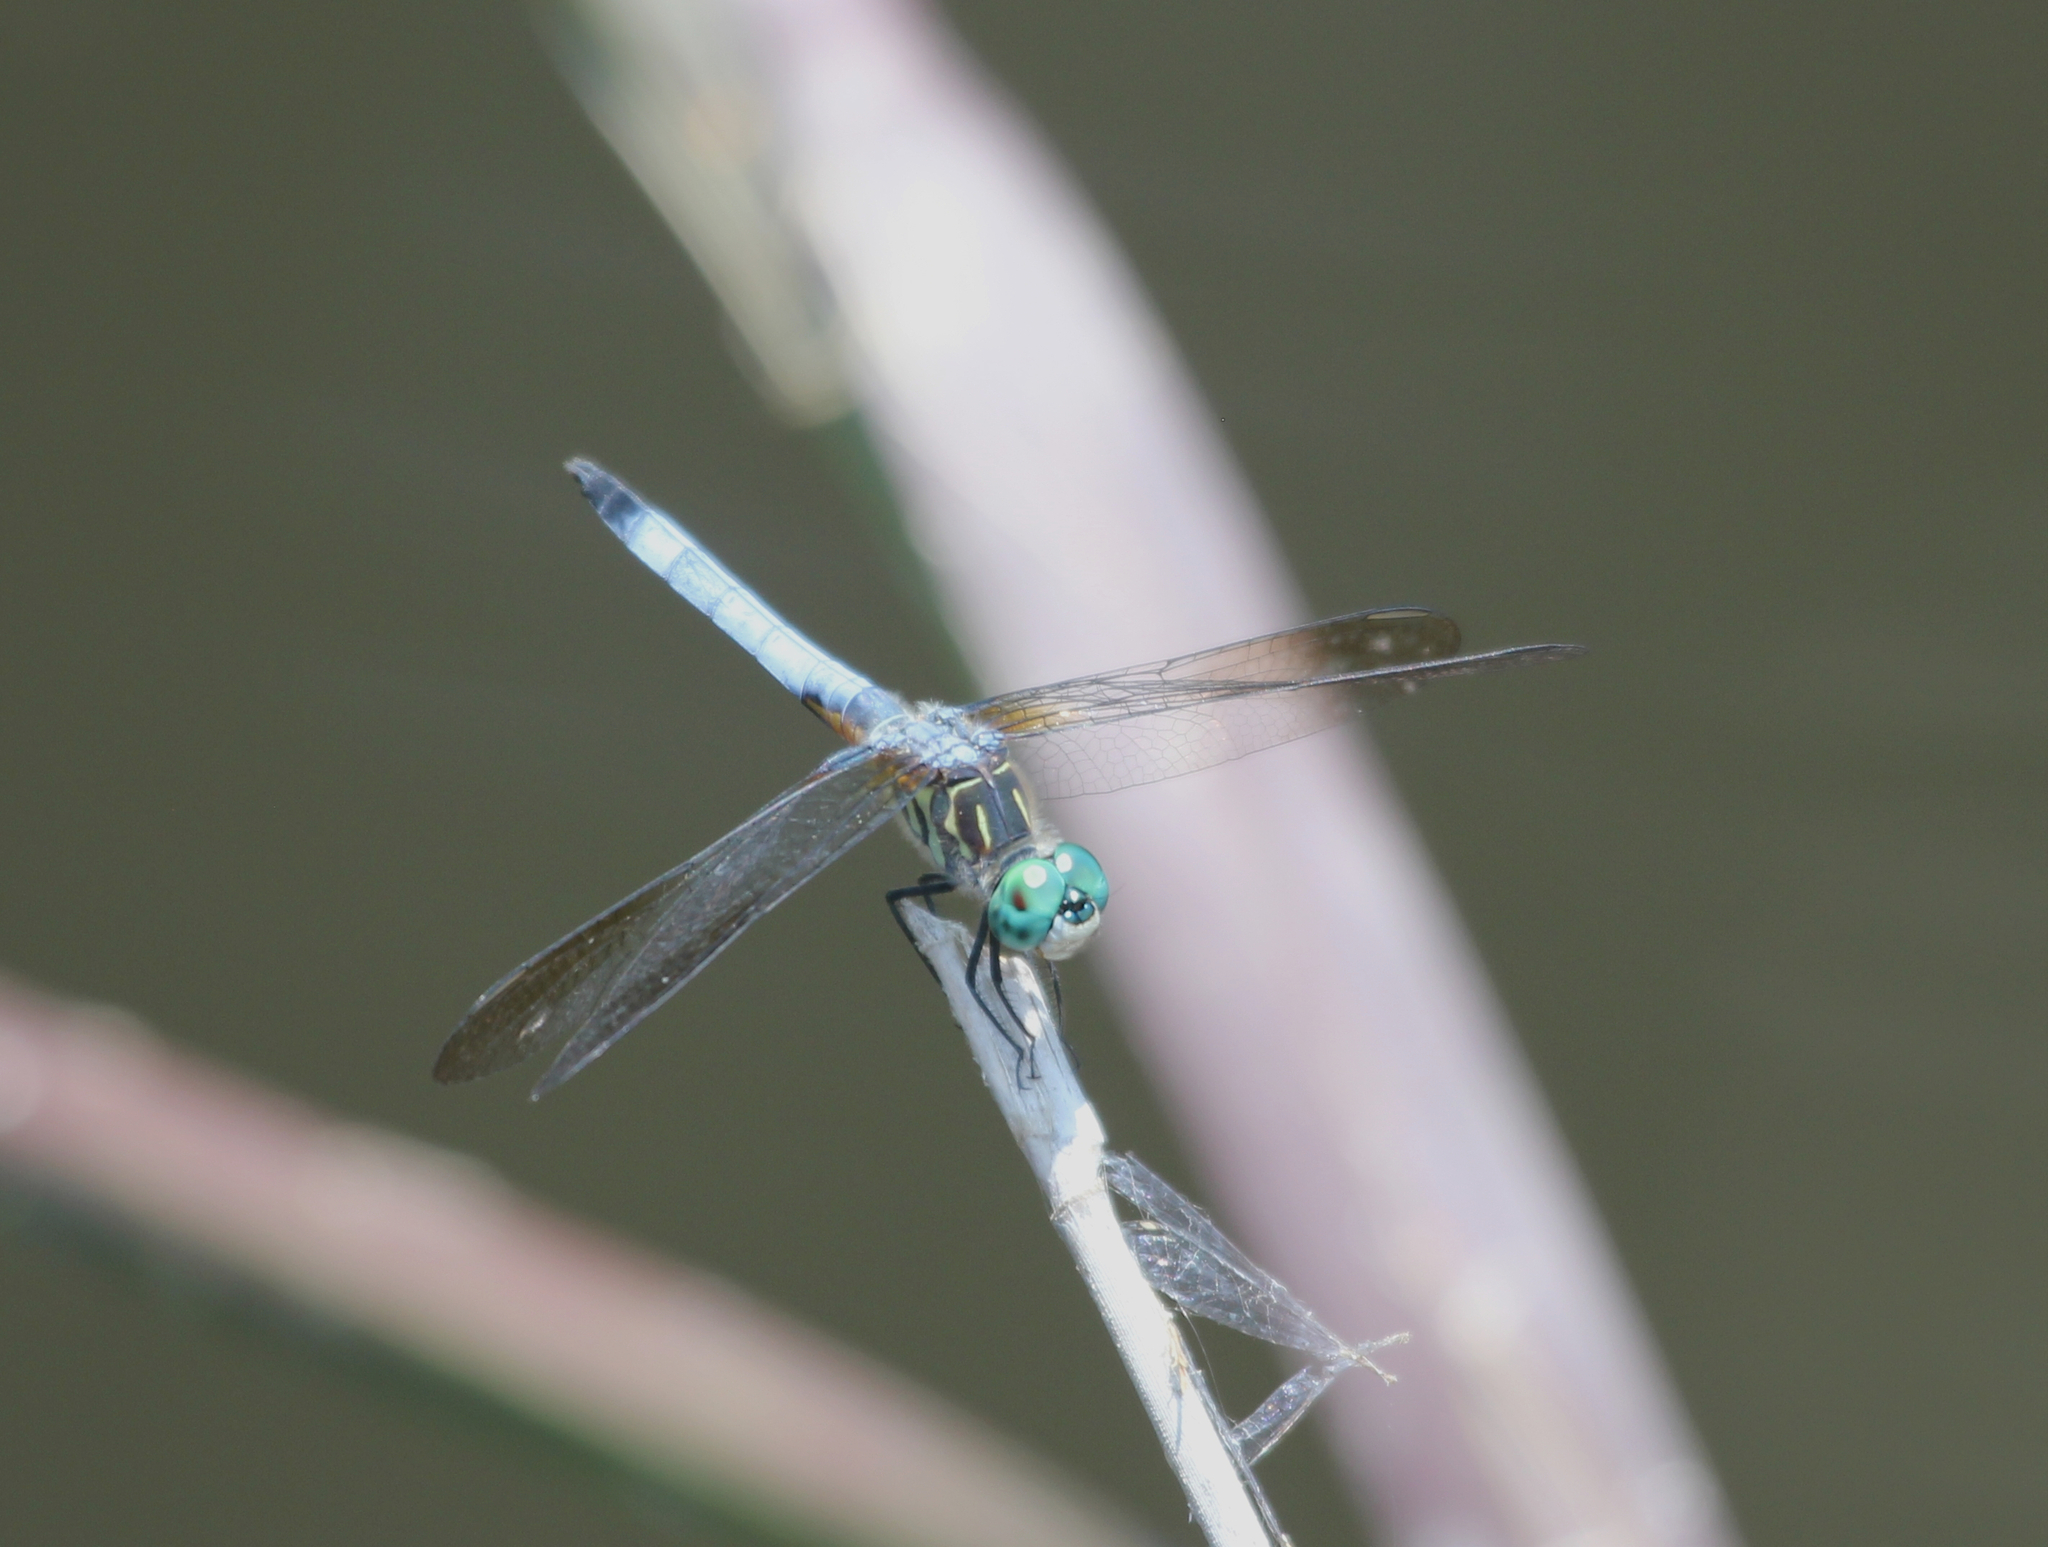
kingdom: Animalia
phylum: Arthropoda
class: Insecta
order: Odonata
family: Libellulidae
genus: Pachydiplax
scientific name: Pachydiplax longipennis
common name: Blue dasher
